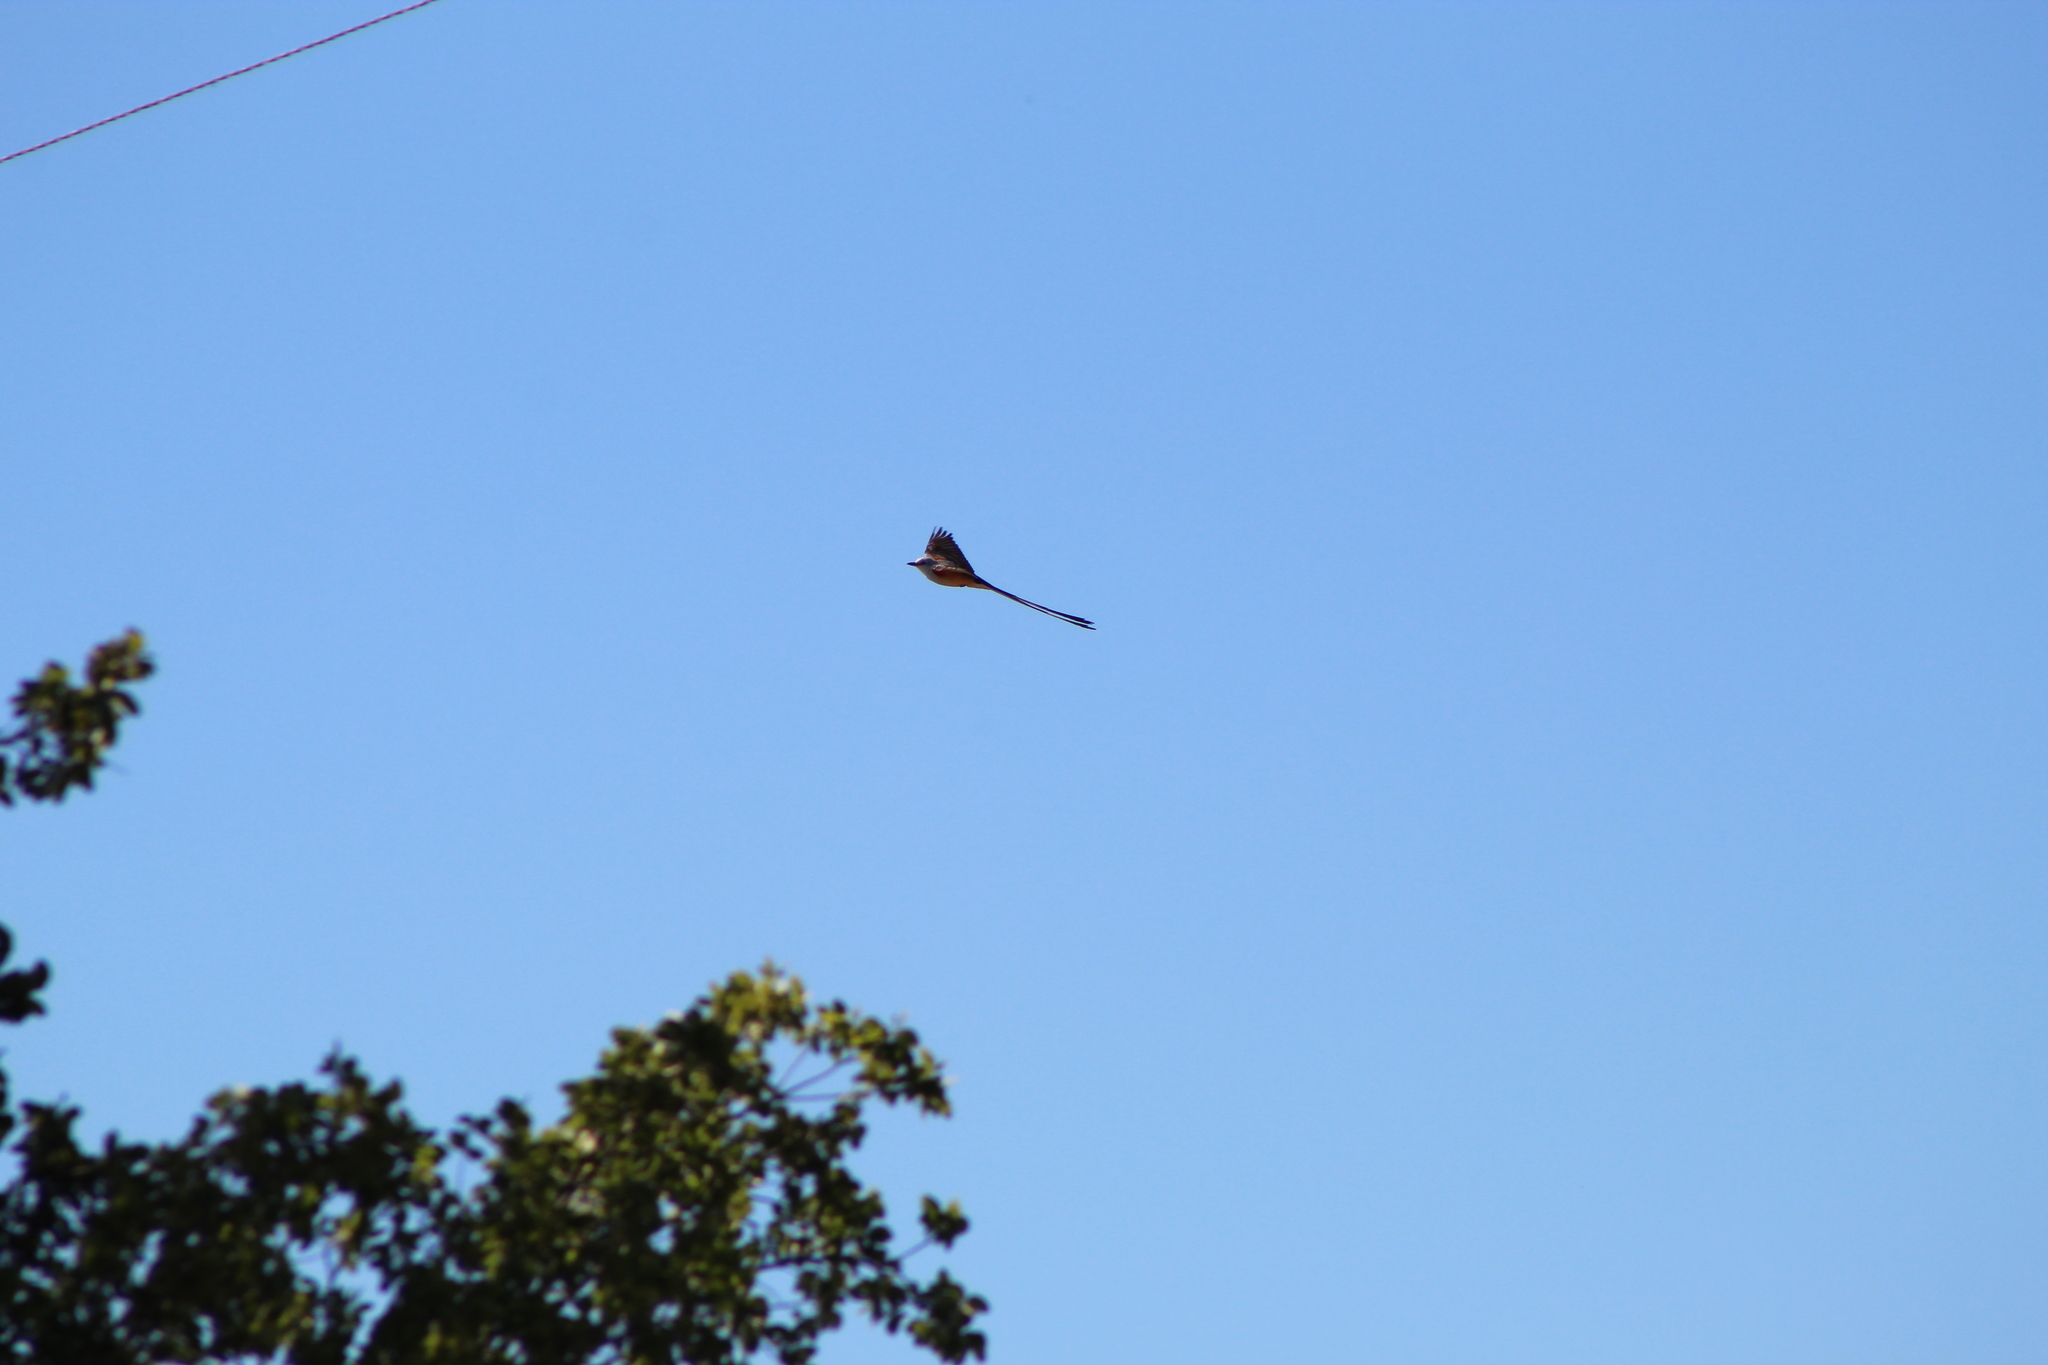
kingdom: Animalia
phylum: Chordata
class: Aves
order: Passeriformes
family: Tyrannidae
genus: Tyrannus
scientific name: Tyrannus forficatus
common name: Scissor-tailed flycatcher
